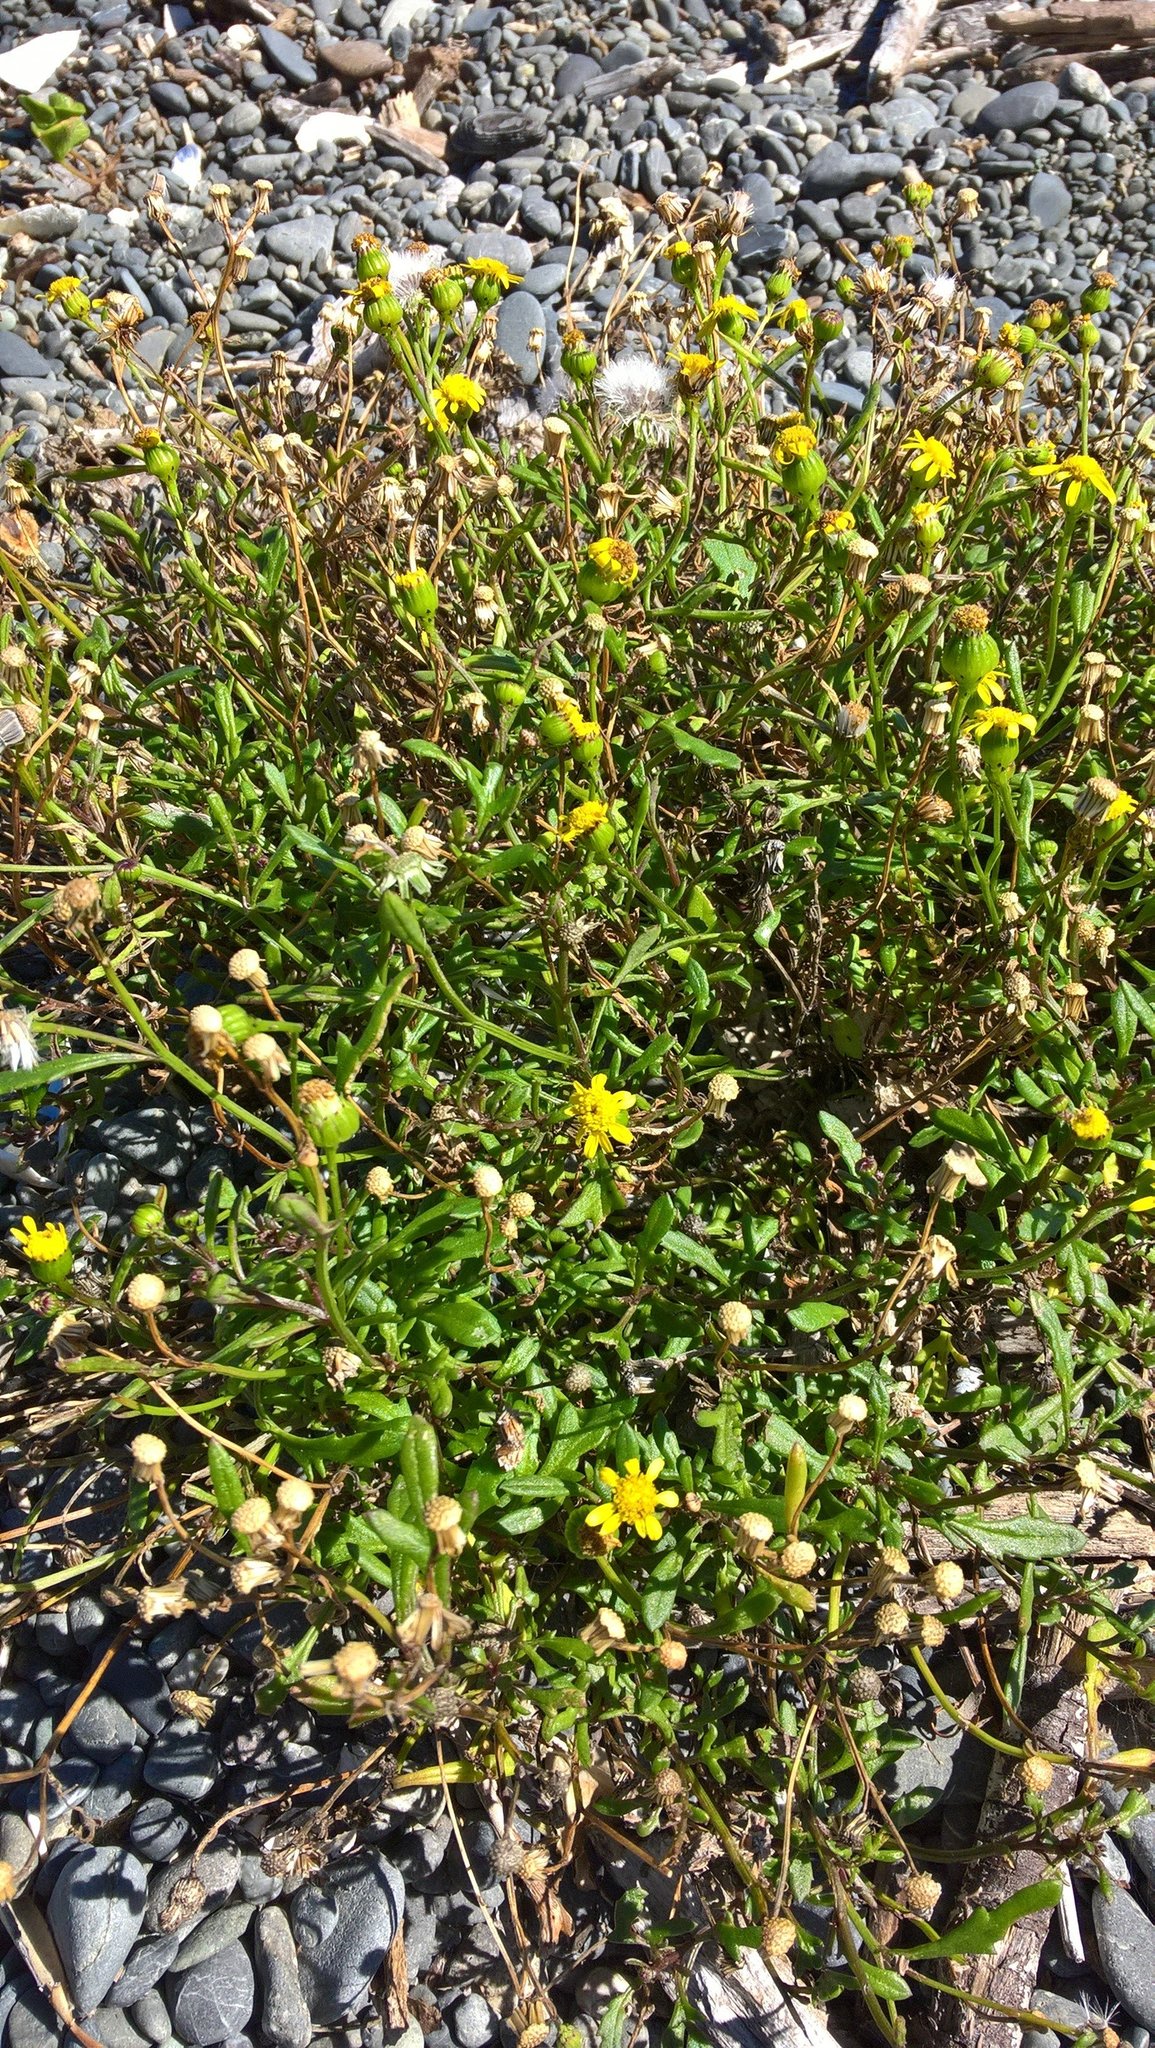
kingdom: Plantae
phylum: Tracheophyta
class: Magnoliopsida
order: Asterales
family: Asteraceae
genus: Senecio
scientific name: Senecio lautus
